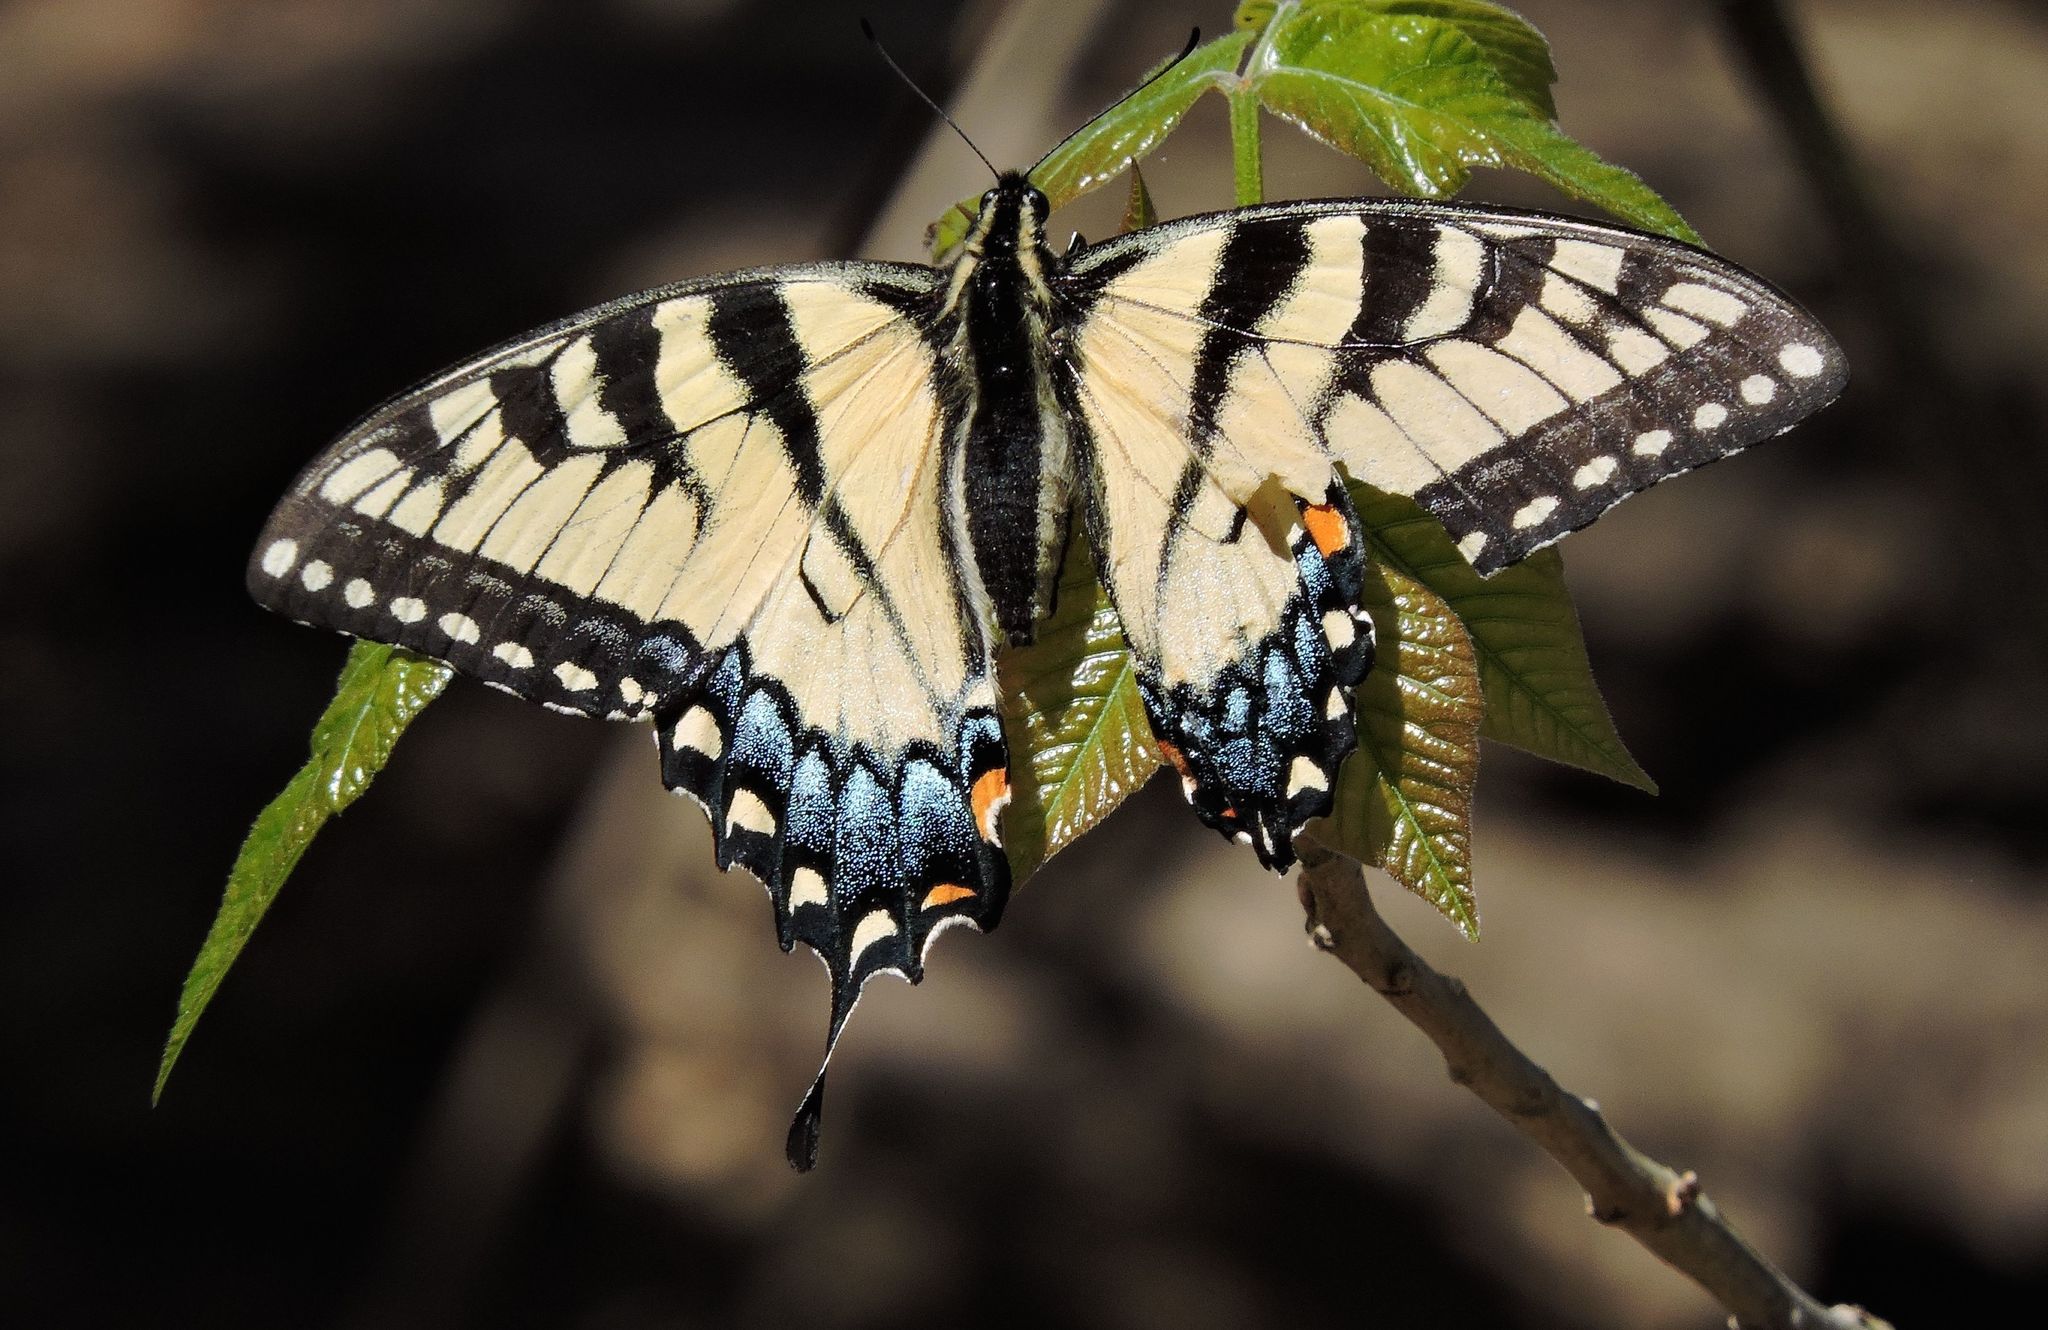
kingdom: Animalia
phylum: Arthropoda
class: Insecta
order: Lepidoptera
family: Papilionidae
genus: Papilio
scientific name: Papilio glaucus
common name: Tiger swallowtail
